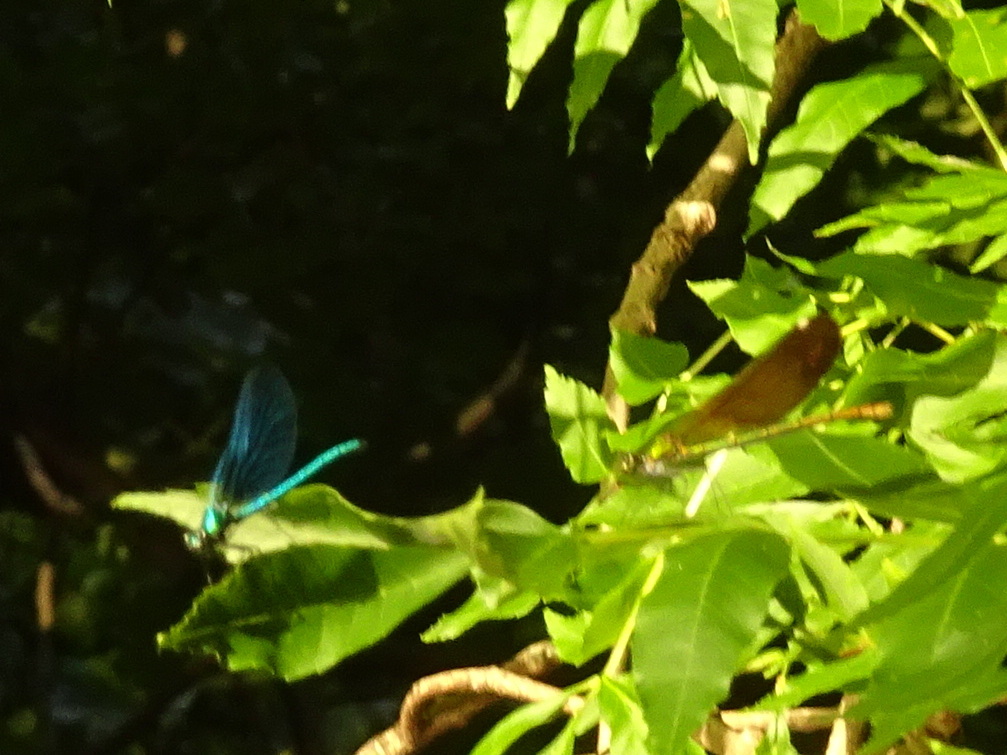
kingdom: Animalia
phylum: Arthropoda
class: Insecta
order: Odonata
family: Calopterygidae
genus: Calopteryx
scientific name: Calopteryx virgo
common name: Beautiful demoiselle
